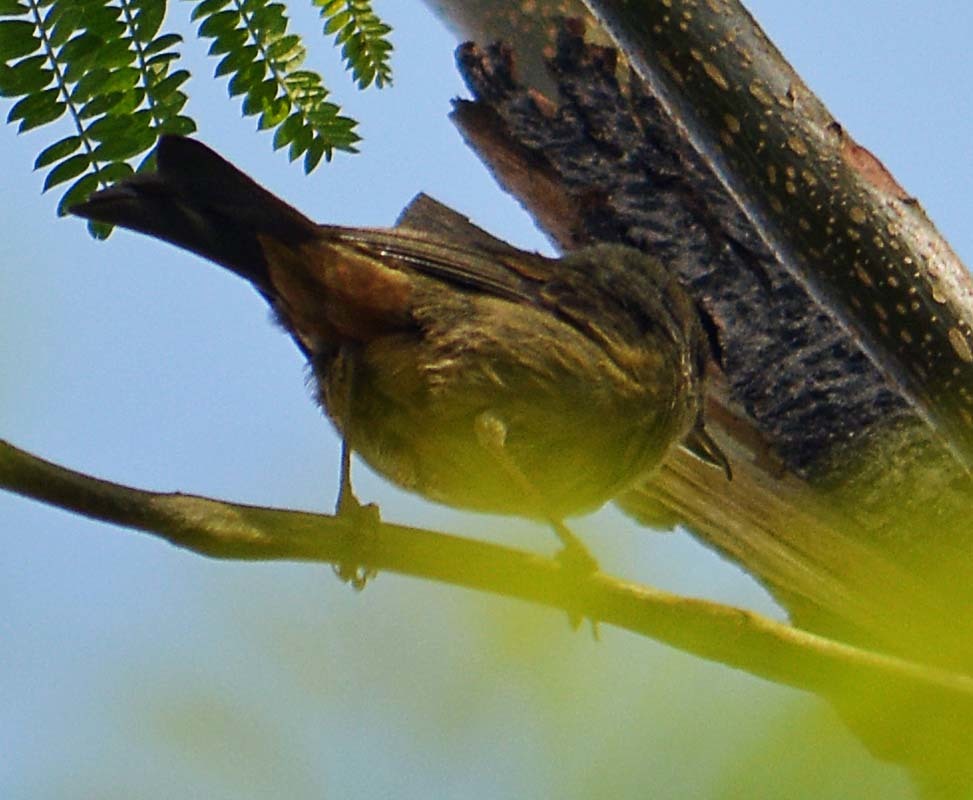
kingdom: Animalia
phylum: Chordata
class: Aves
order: Passeriformes
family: Thraupidae
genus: Diglossa
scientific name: Diglossa baritula
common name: Cinnamon-bellied flowerpiercer
